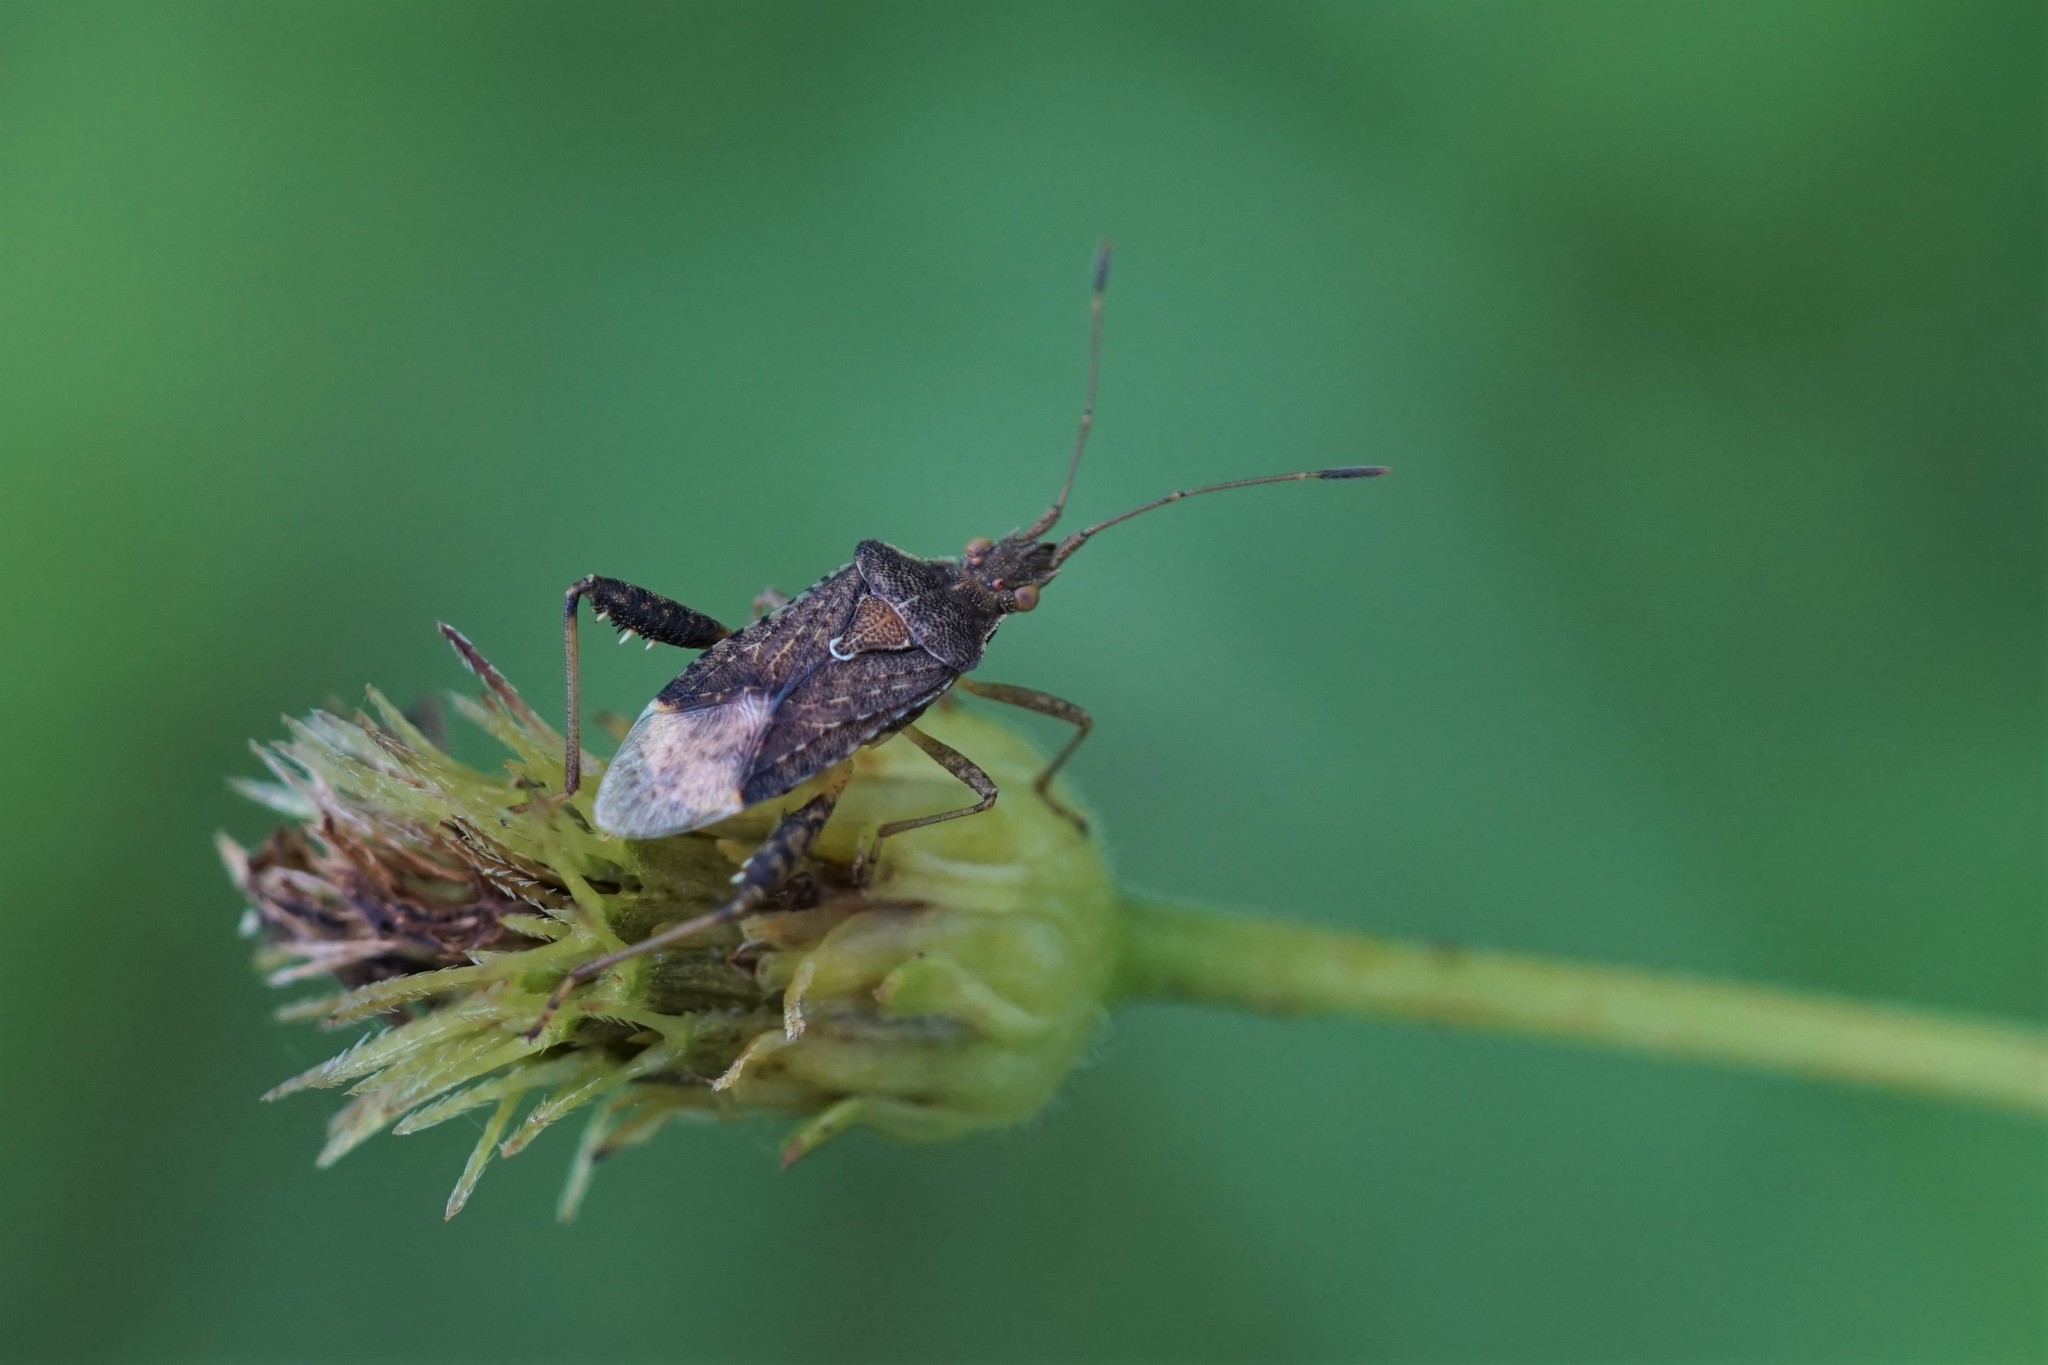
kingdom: Animalia
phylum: Arthropoda
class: Insecta
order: Hemiptera
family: Rhopalidae
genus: Harmostes
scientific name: Harmostes serratus
